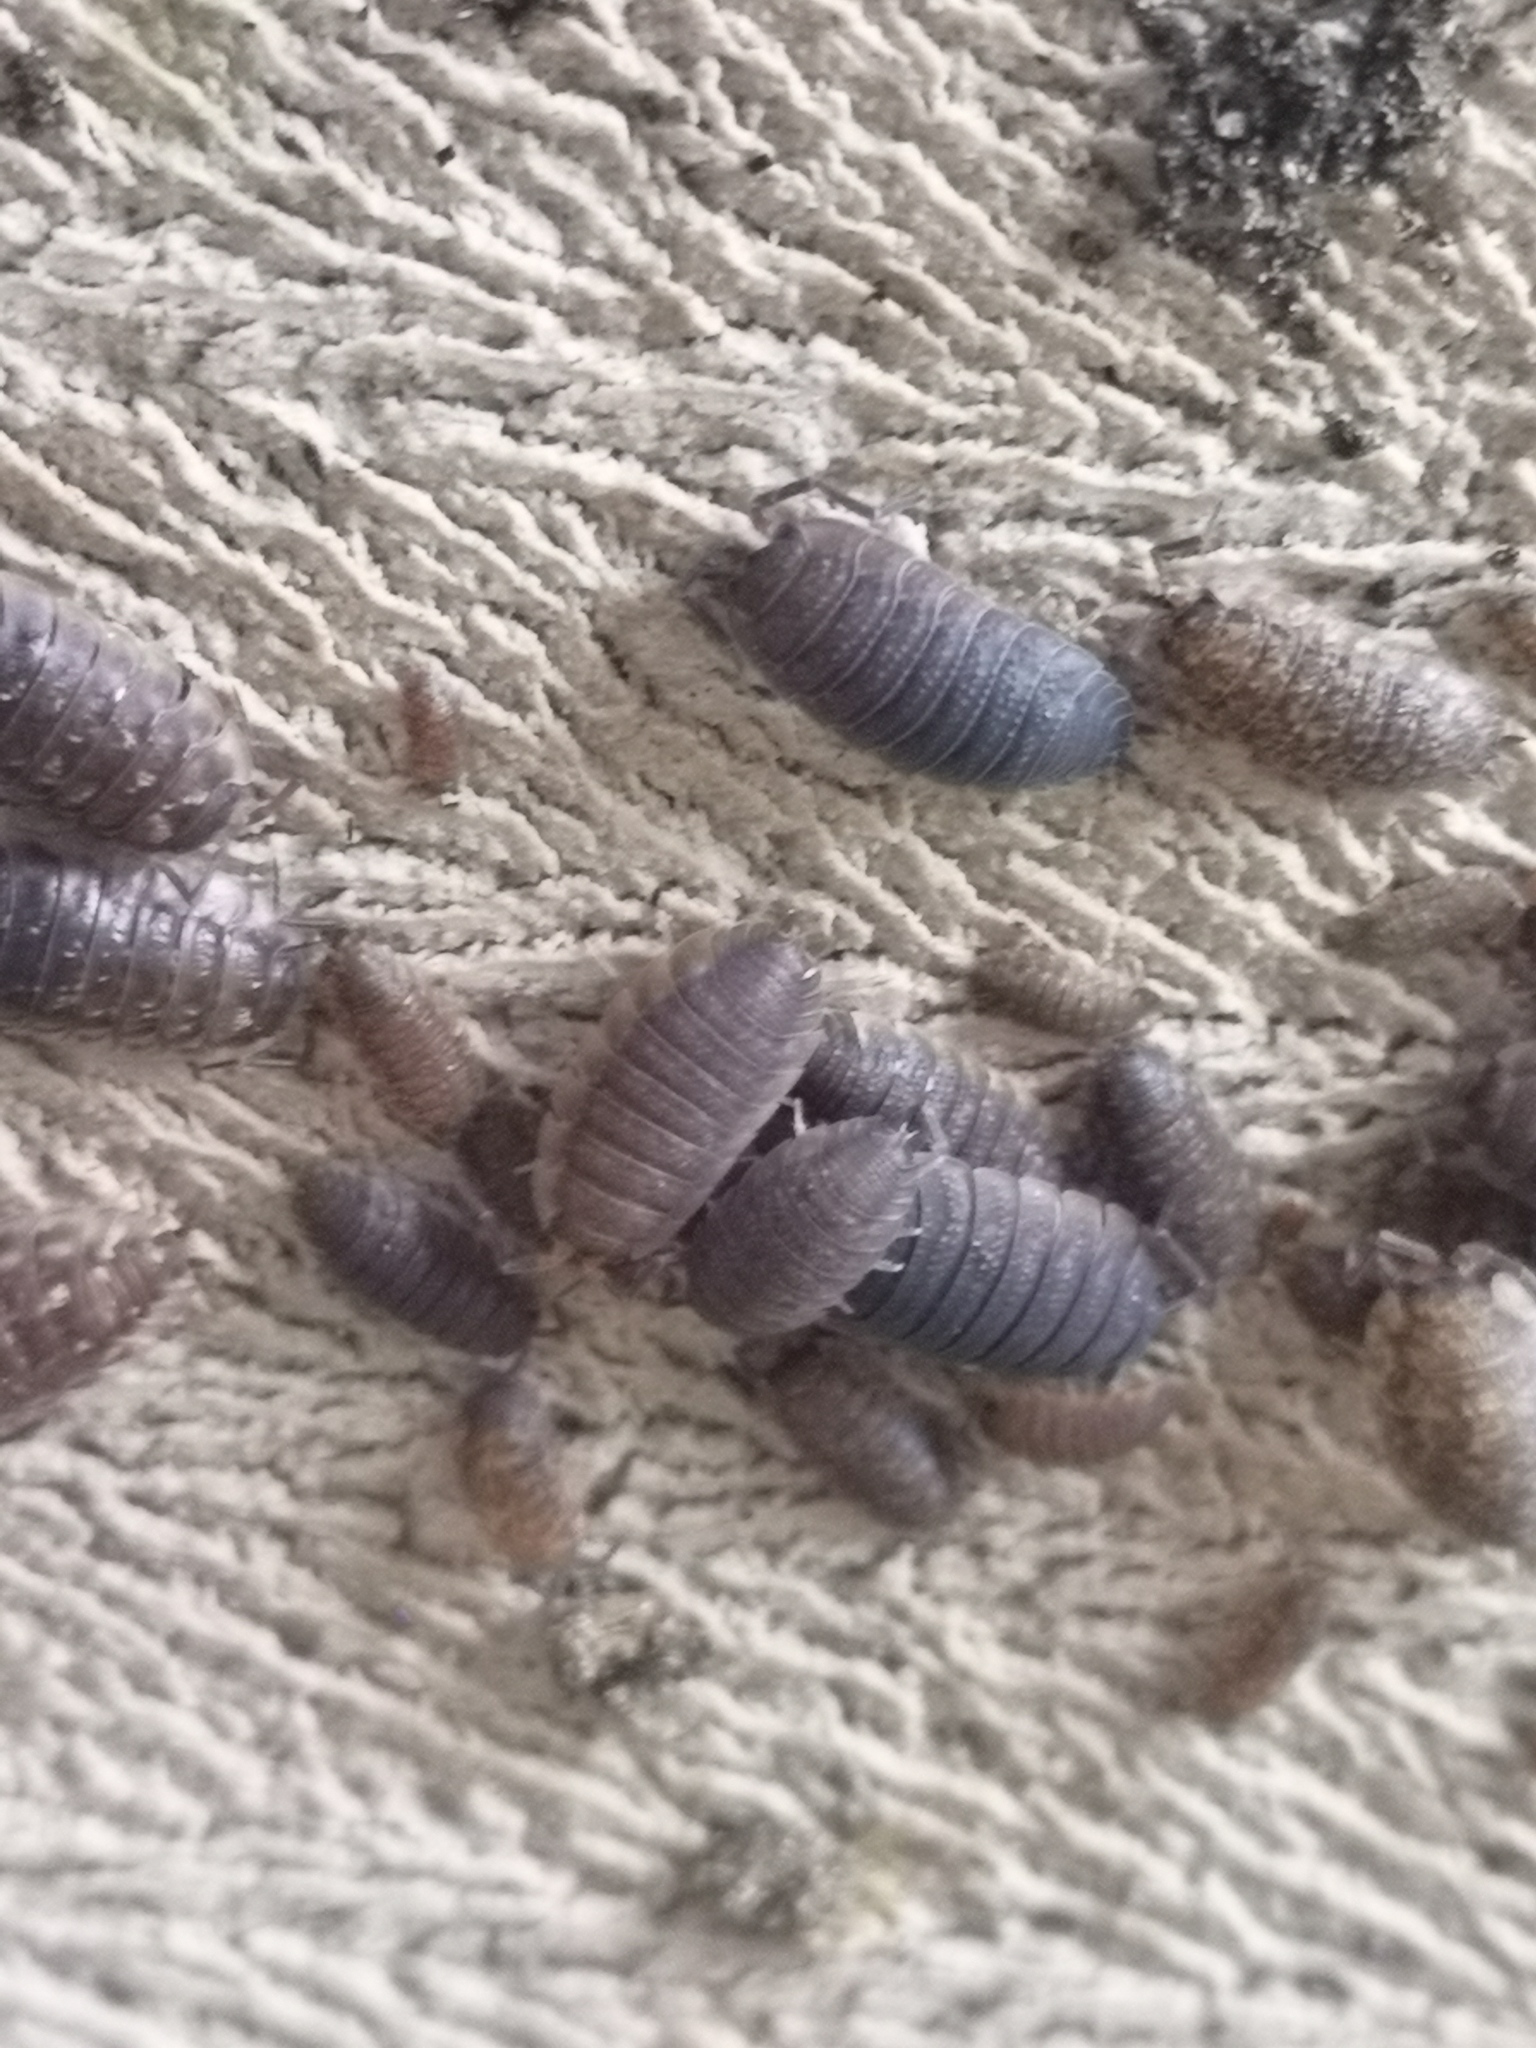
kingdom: Animalia
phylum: Arthropoda
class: Malacostraca
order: Isopoda
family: Porcellionidae
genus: Porcellio
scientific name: Porcellio scaber
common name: Common rough woodlouse
